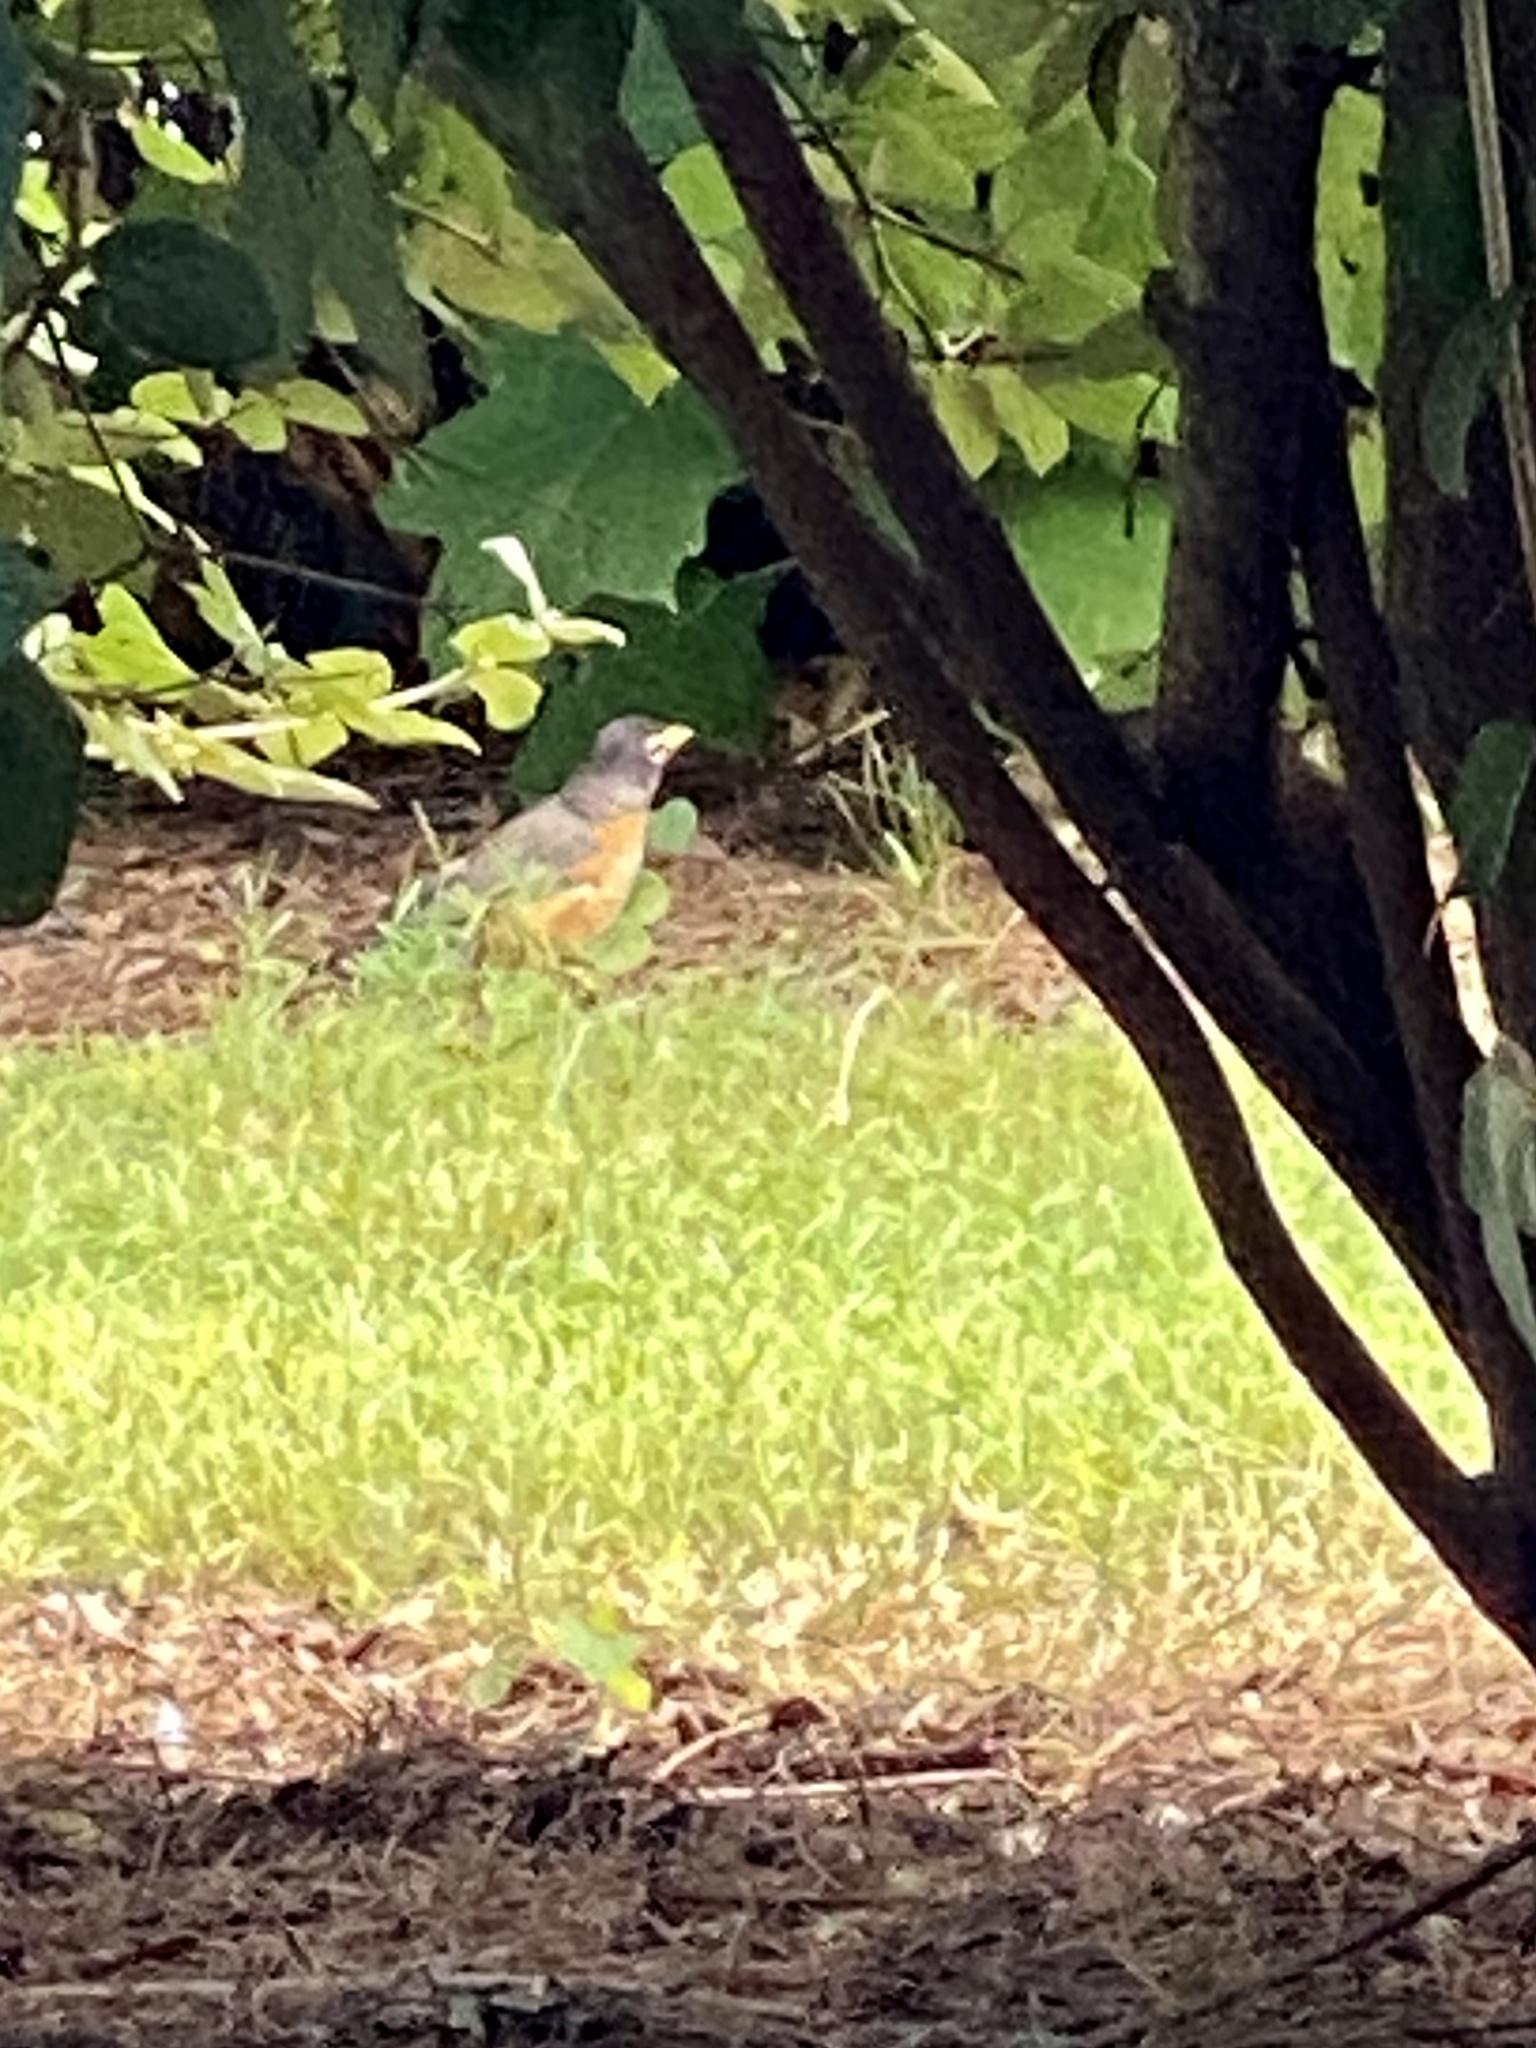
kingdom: Animalia
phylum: Chordata
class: Aves
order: Passeriformes
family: Turdidae
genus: Turdus
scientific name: Turdus migratorius
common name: American robin
